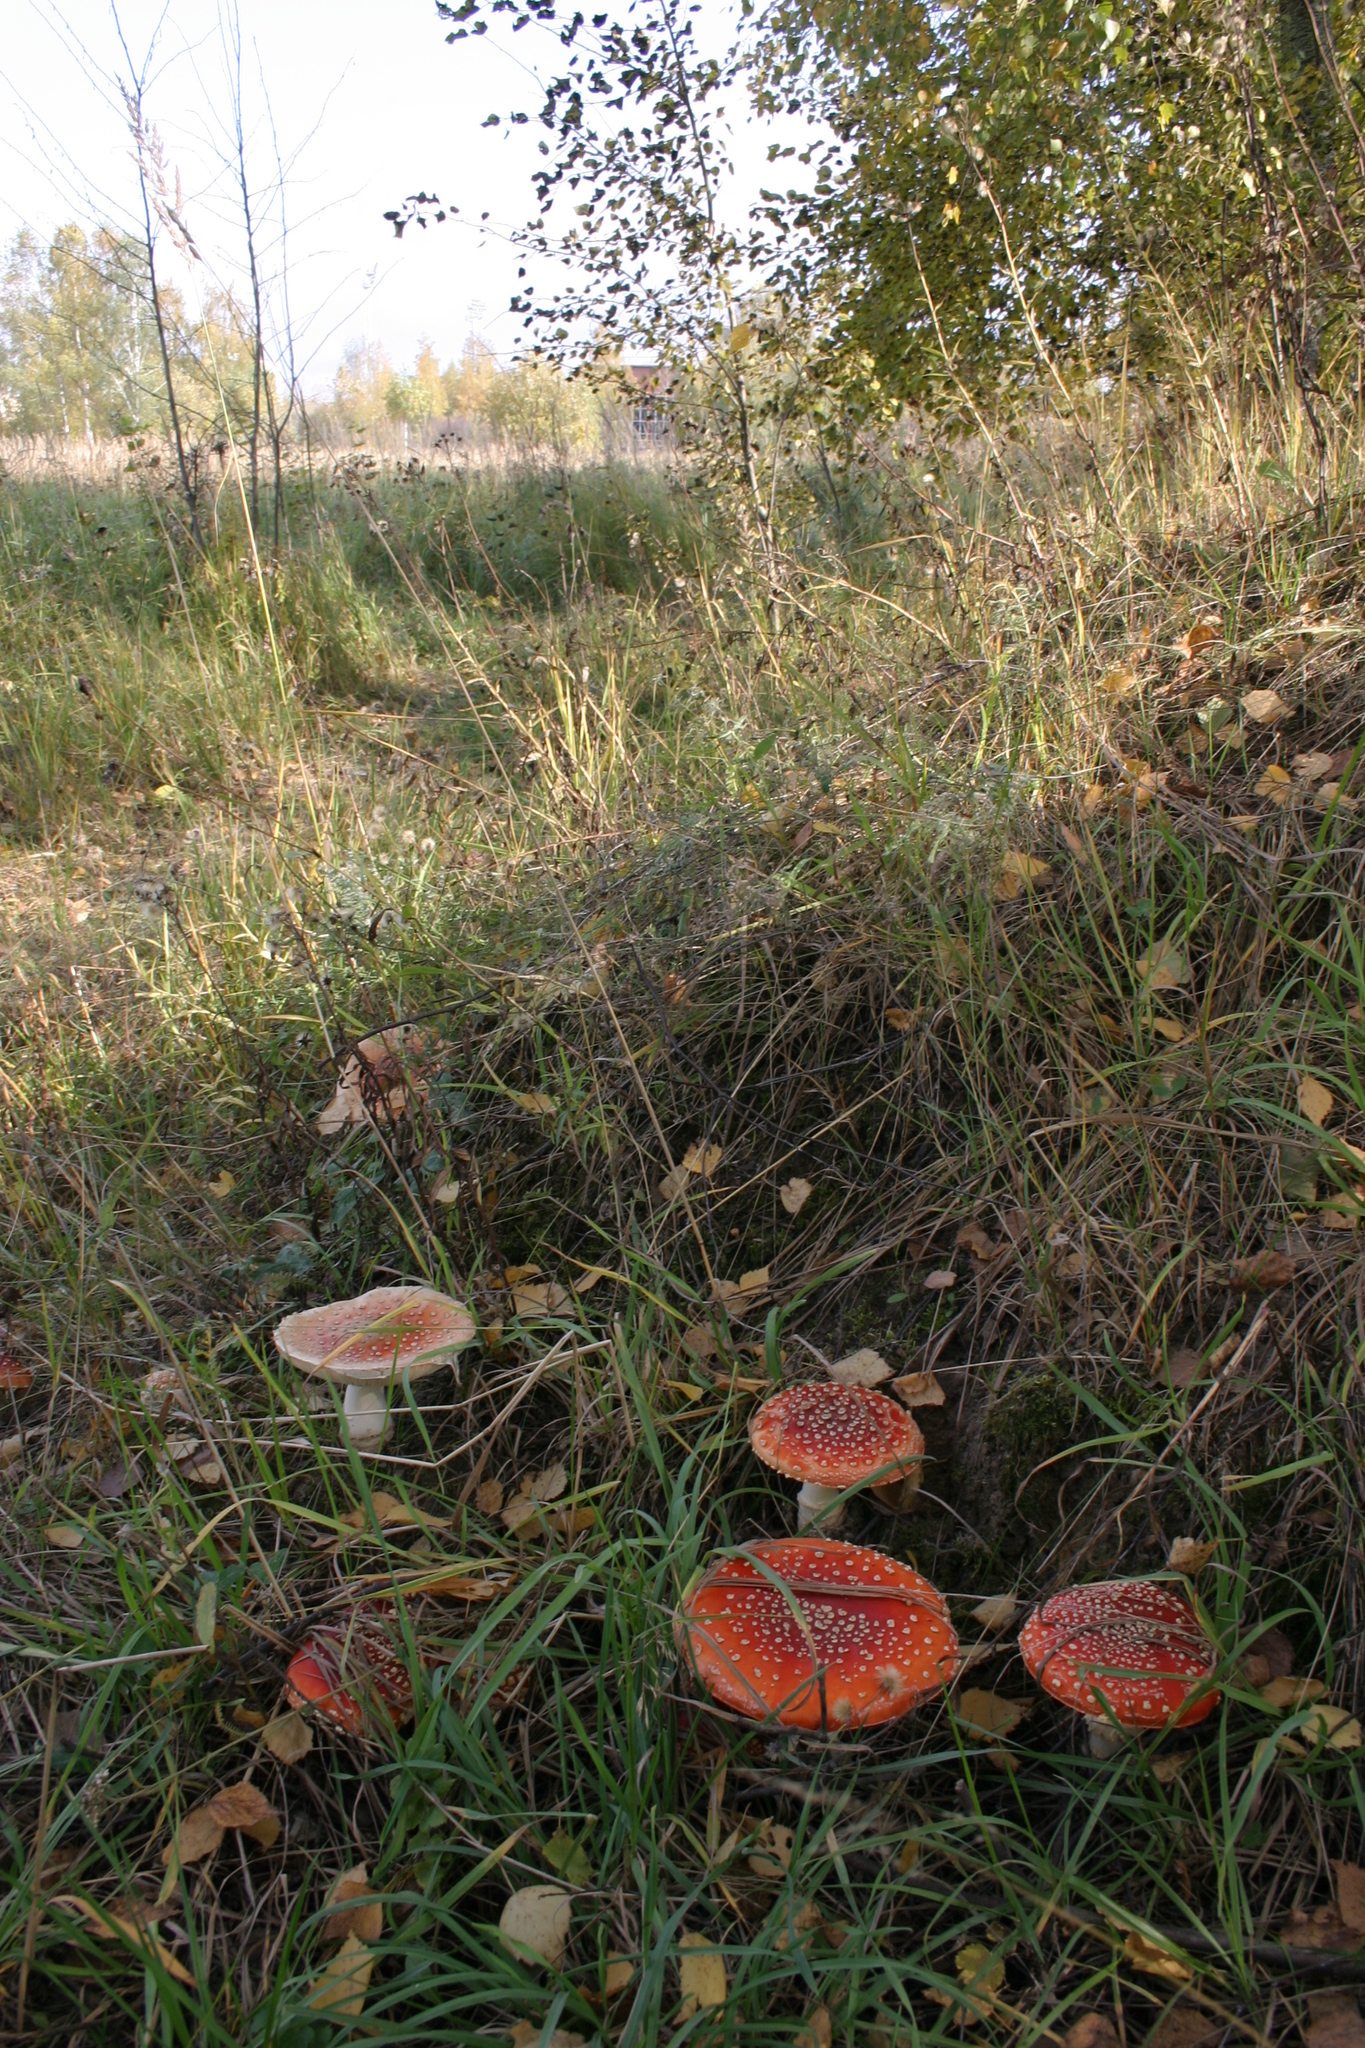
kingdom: Fungi
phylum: Basidiomycota
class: Agaricomycetes
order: Agaricales
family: Amanitaceae
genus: Amanita
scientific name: Amanita muscaria
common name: Fly agaric
